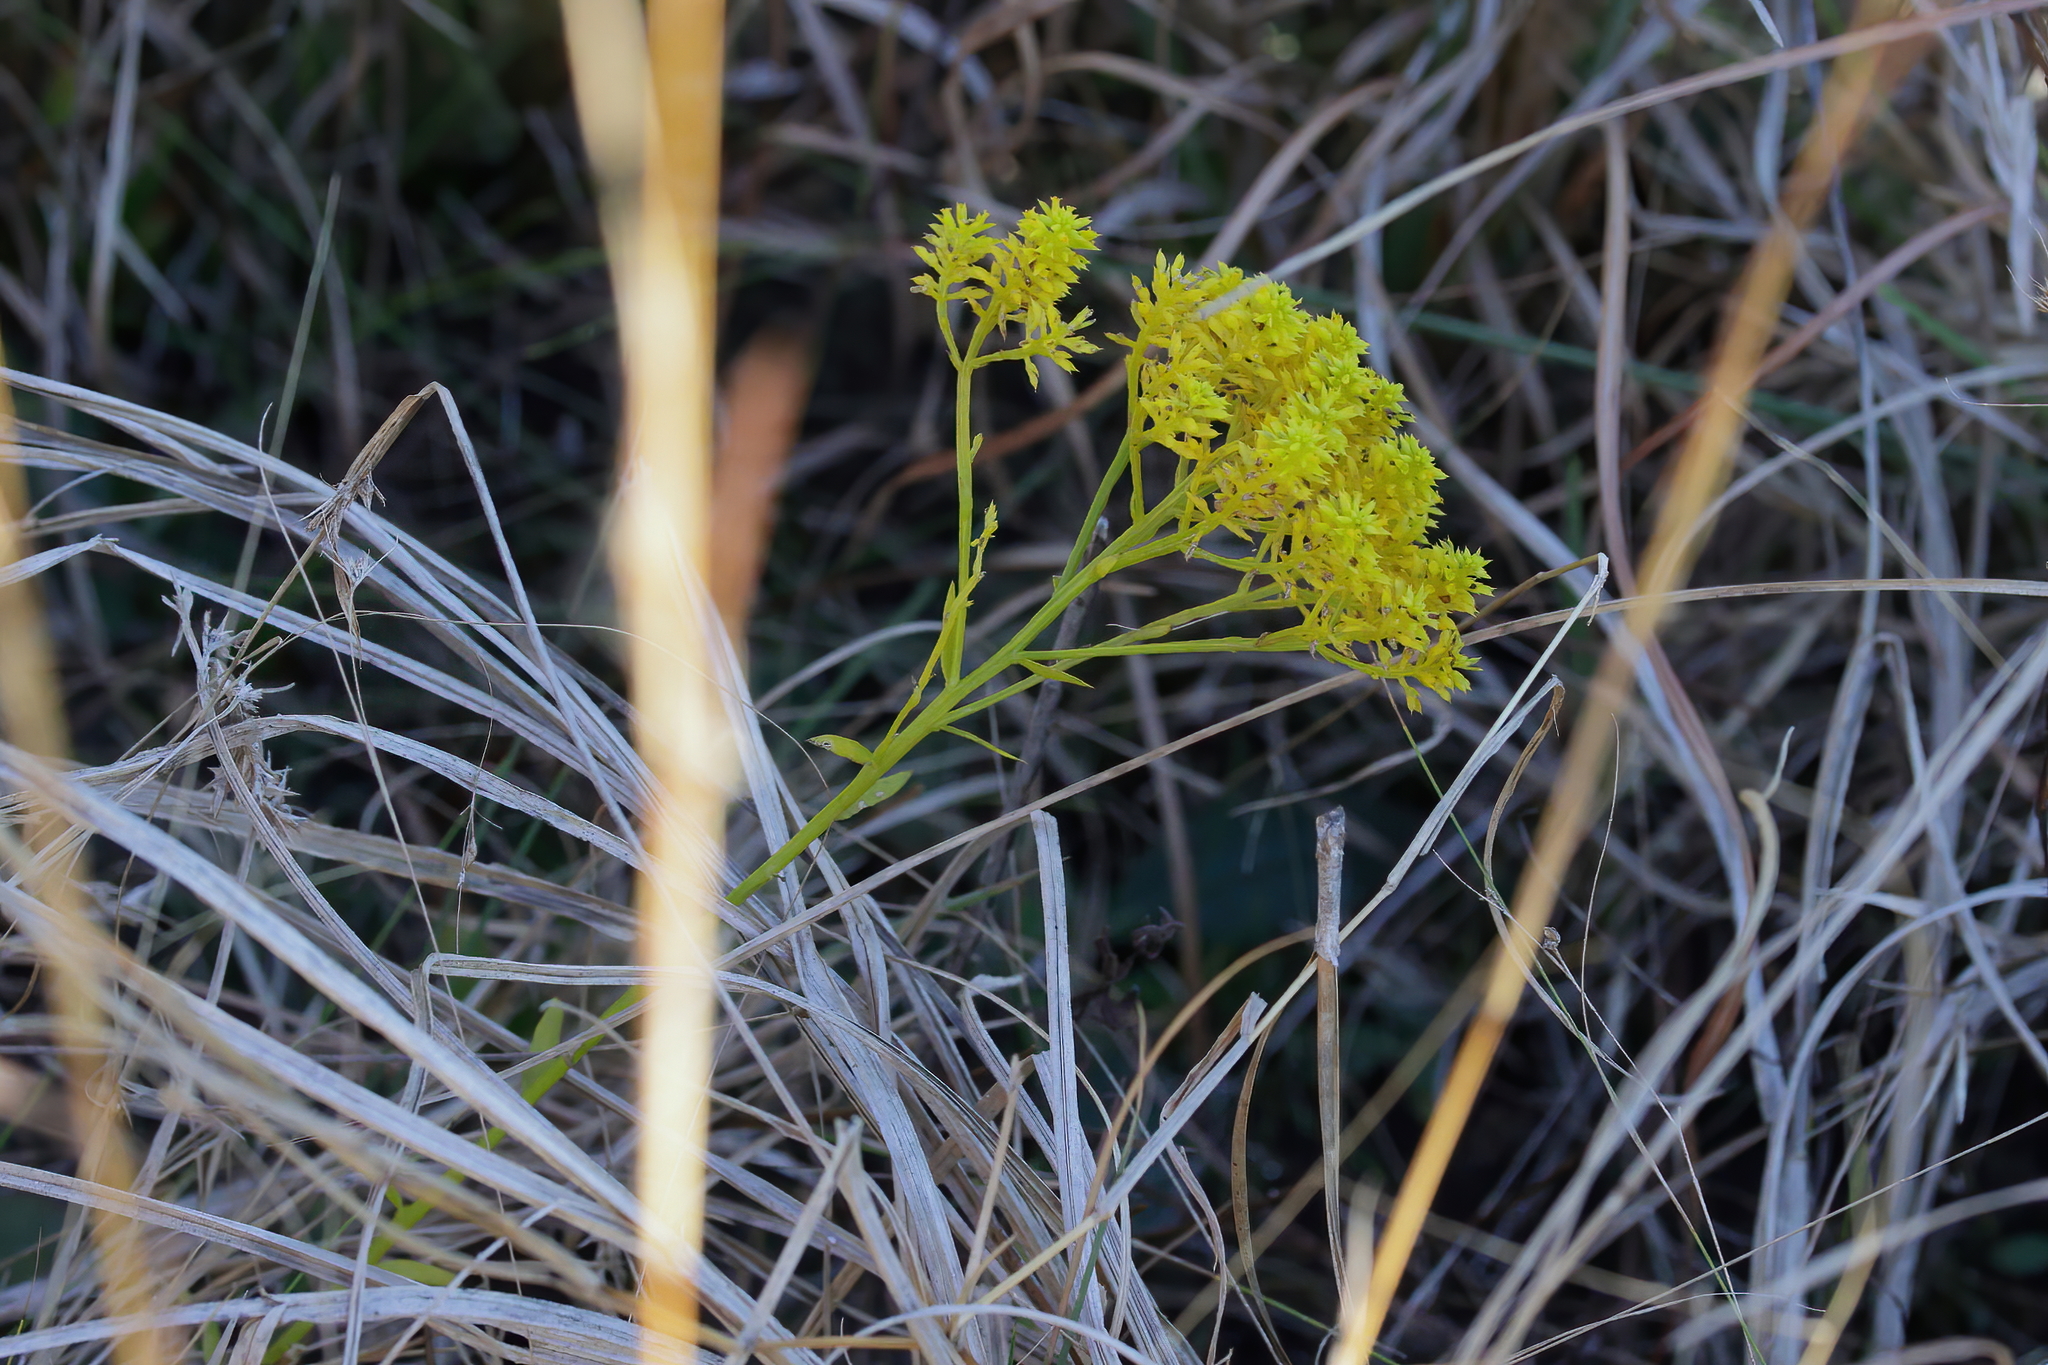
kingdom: Plantae
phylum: Tracheophyta
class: Magnoliopsida
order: Fabales
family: Polygalaceae
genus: Polygala
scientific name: Polygala ramosa
